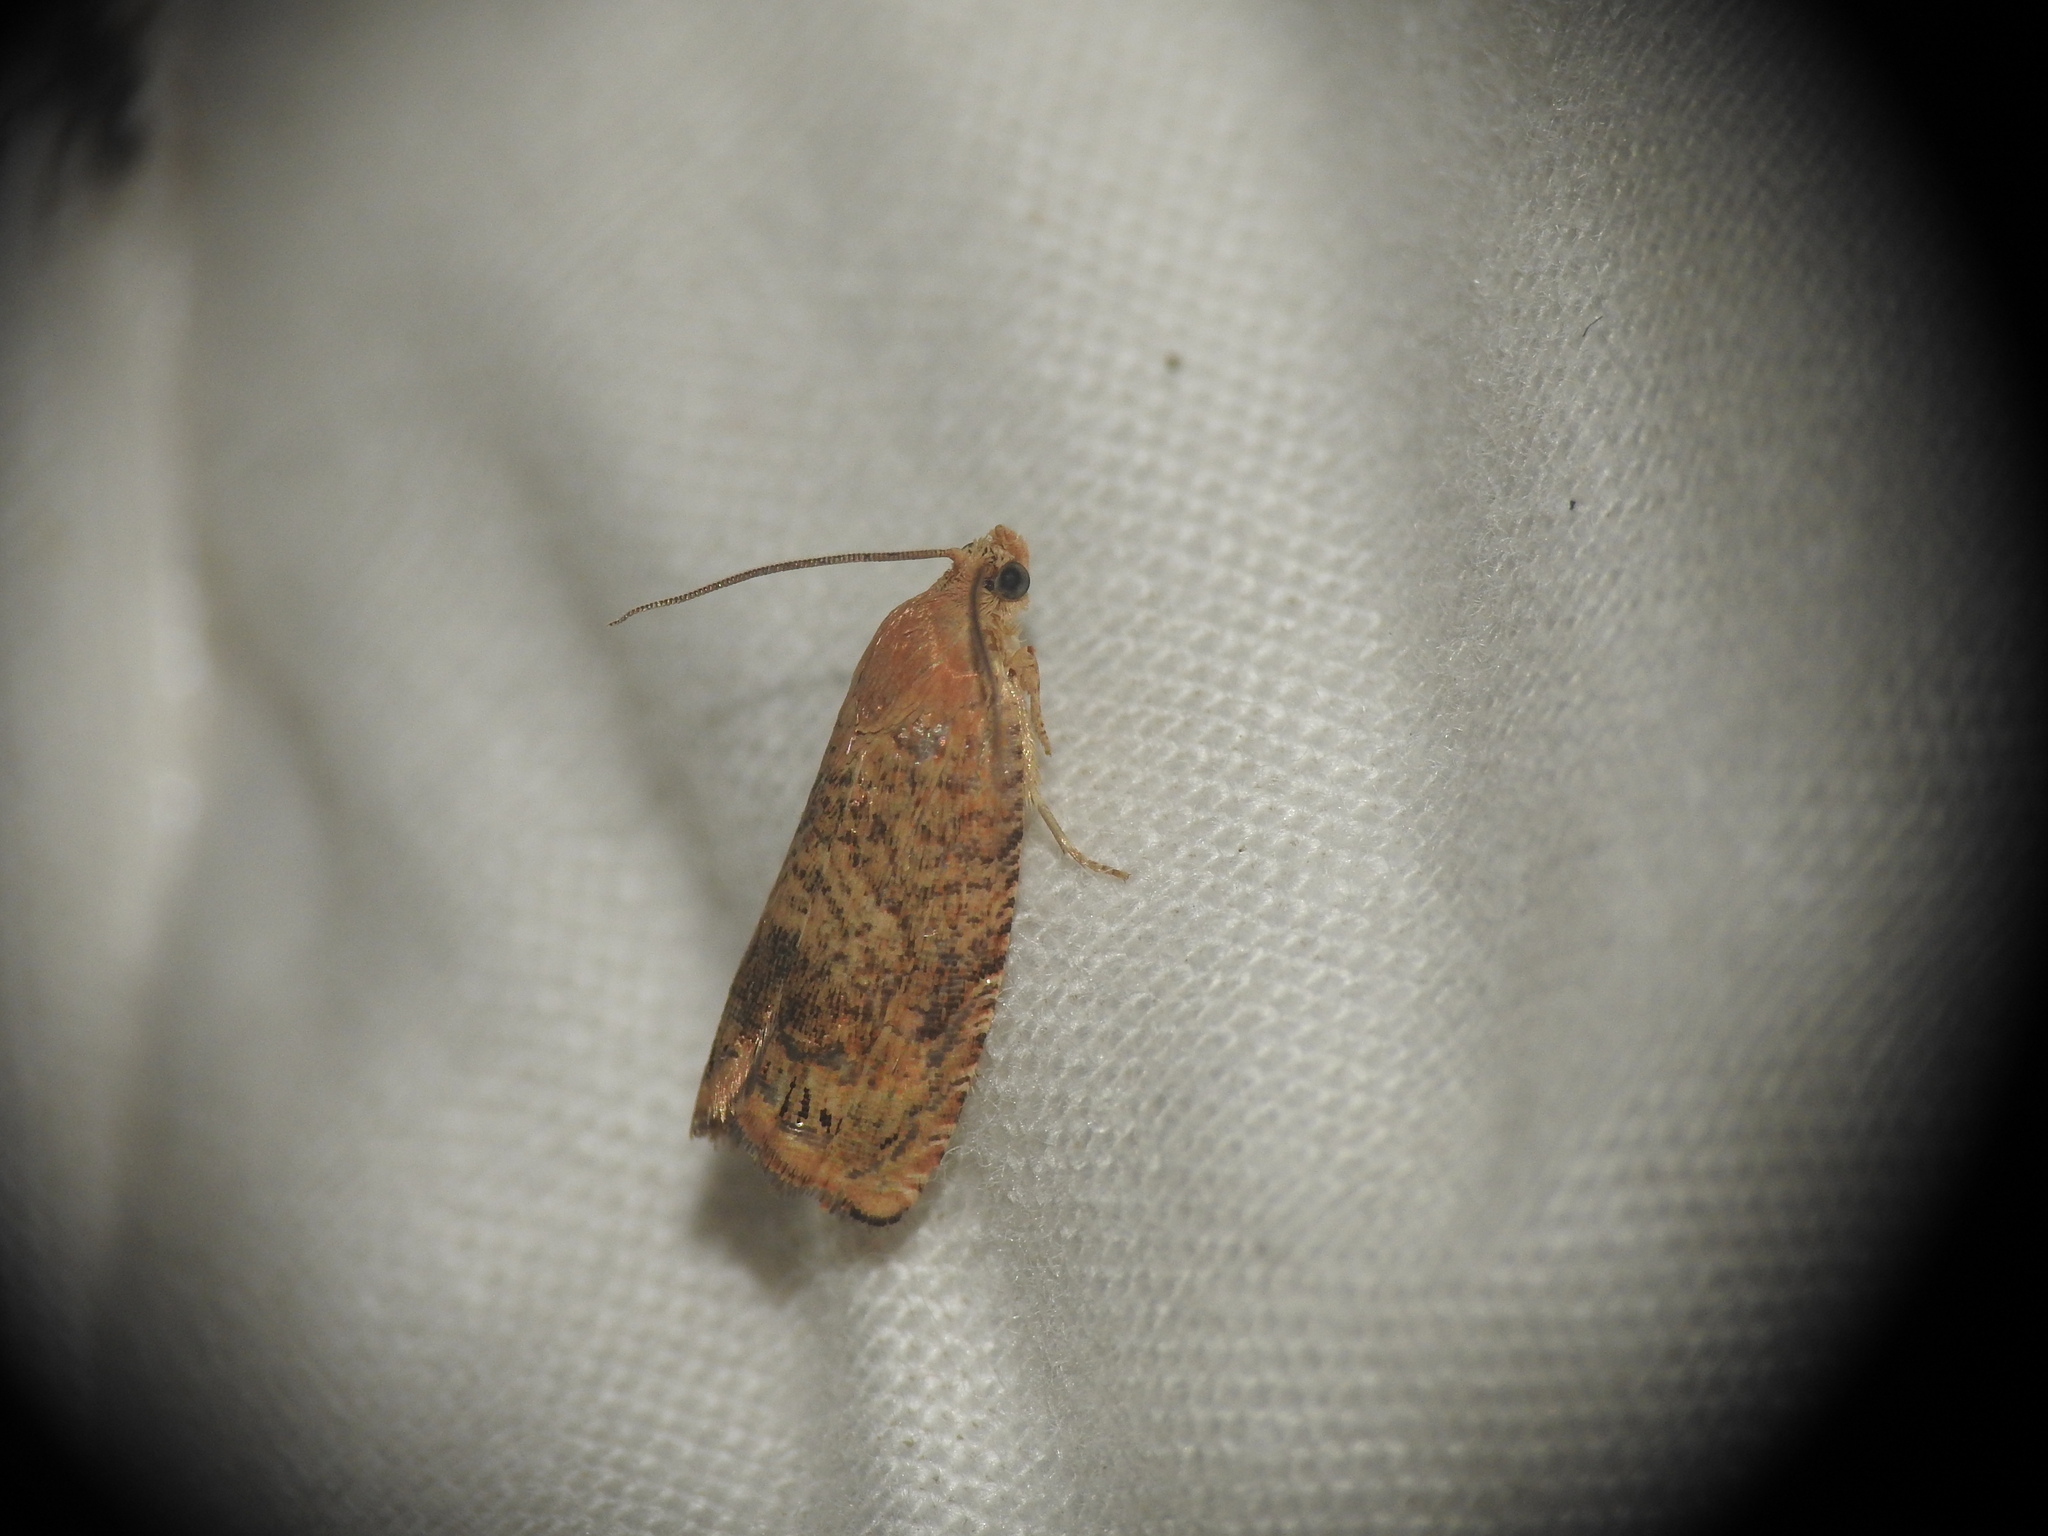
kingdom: Animalia
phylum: Arthropoda
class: Insecta
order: Lepidoptera
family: Tortricidae
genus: Cydia
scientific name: Cydia amplana
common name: Vagrant piercer
